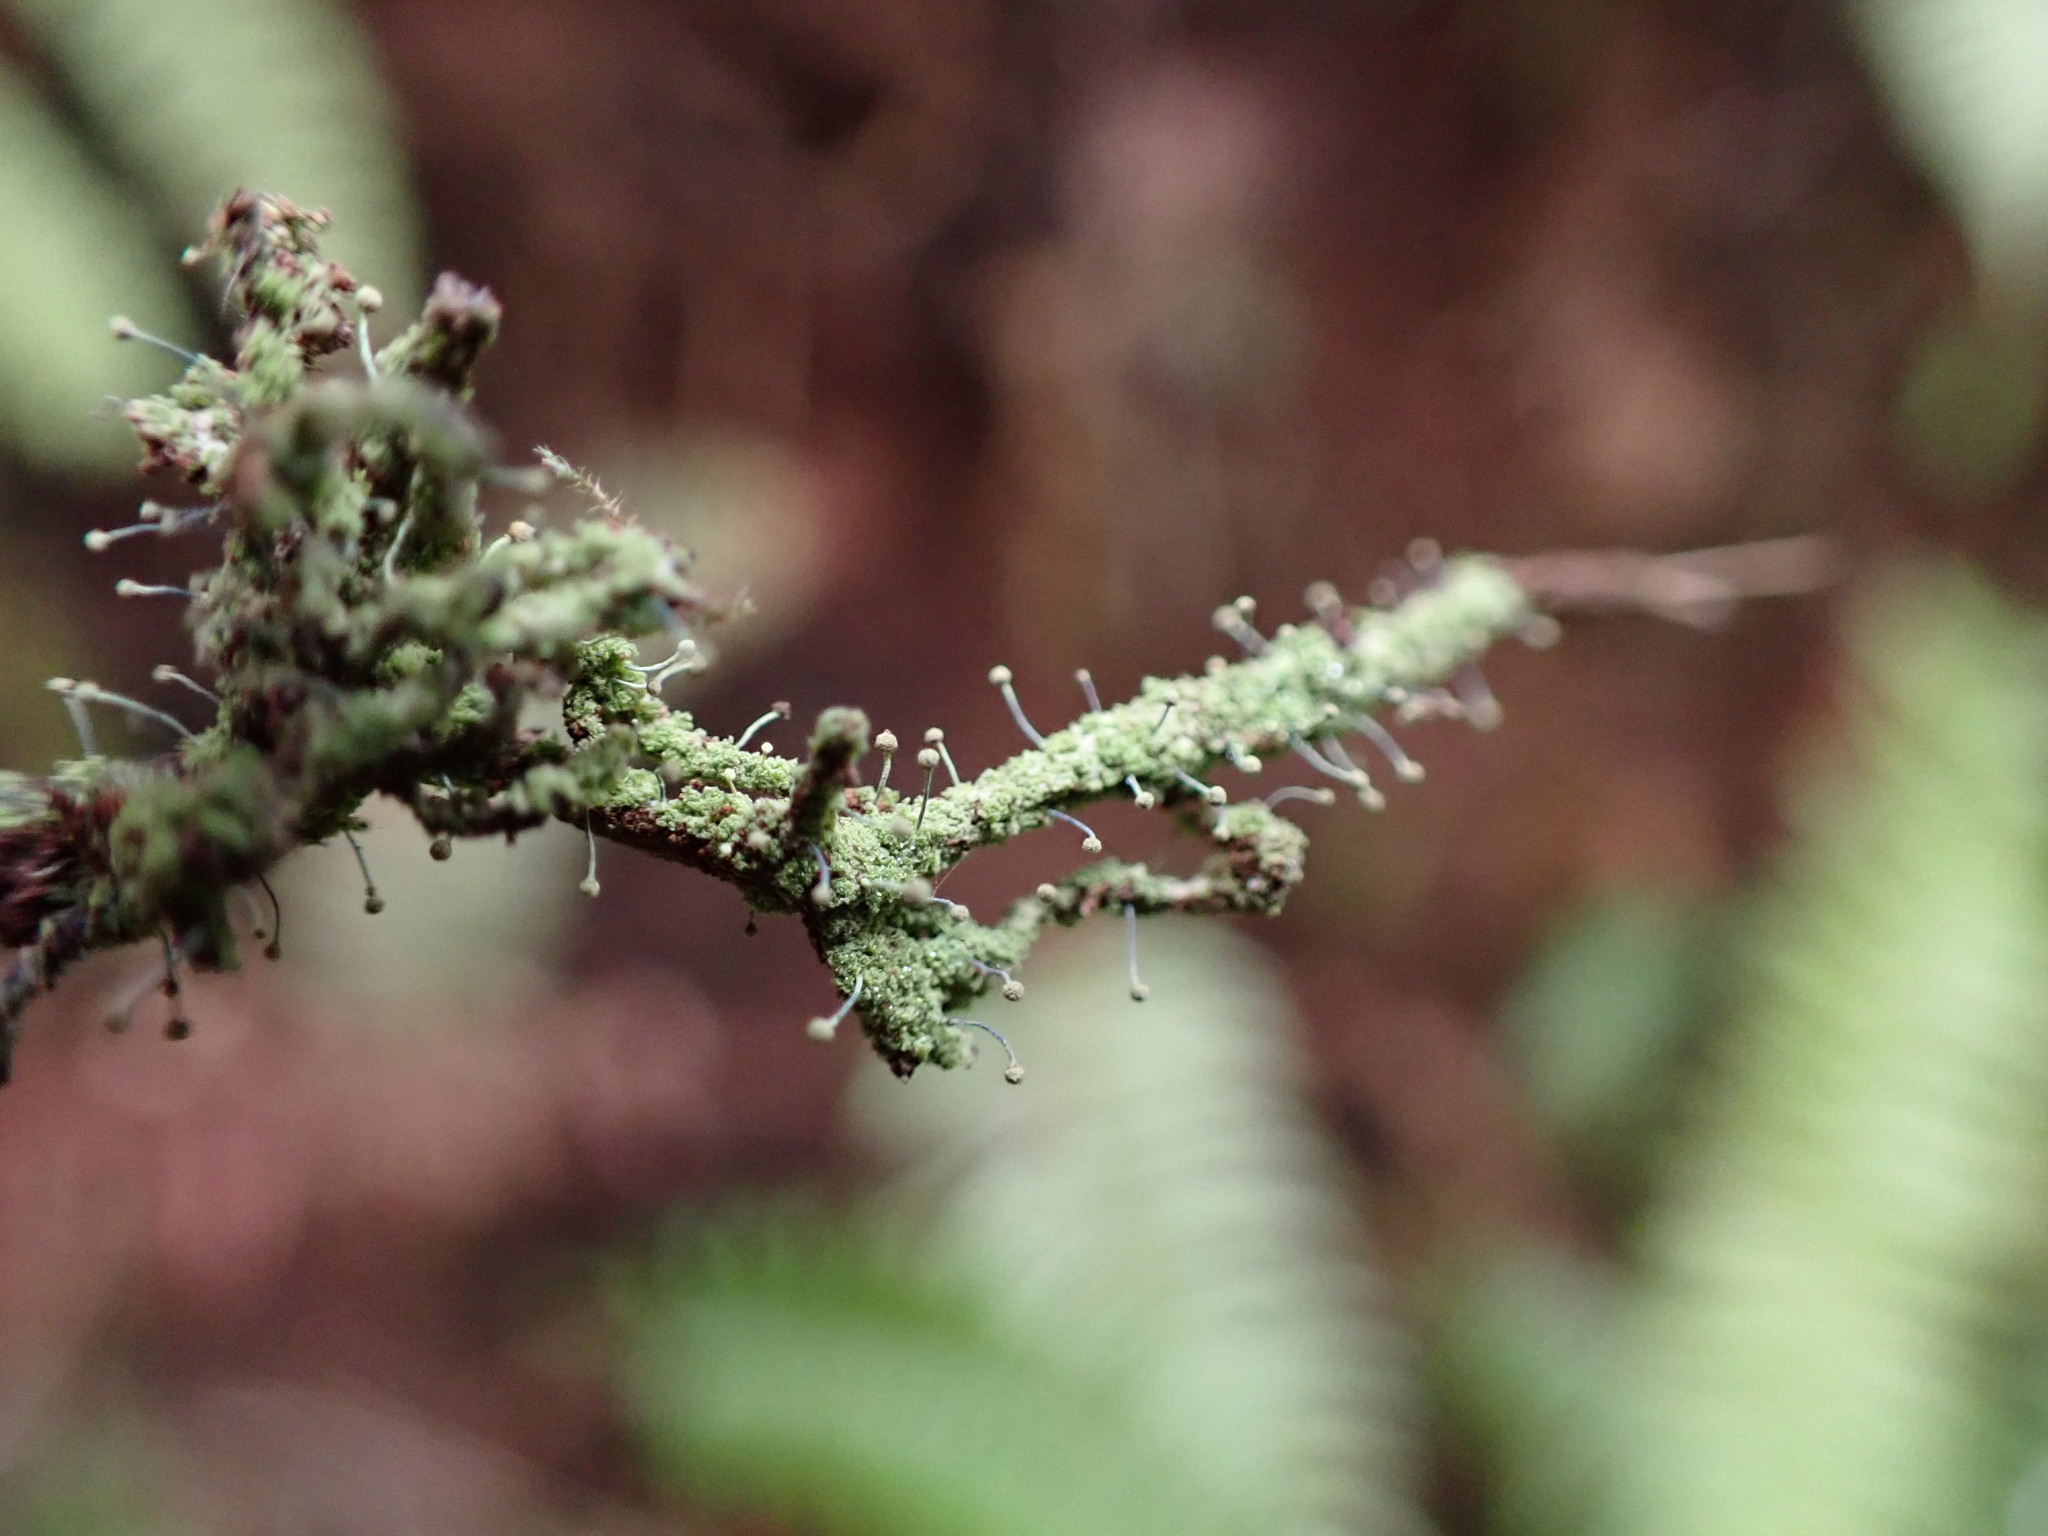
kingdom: Fungi
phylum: Ascomycota
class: Coniocybomycetes
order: Coniocybales
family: Coniocybaceae
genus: Chaenotheca
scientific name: Chaenotheca furfuracea
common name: Sulphur stubble lichen
